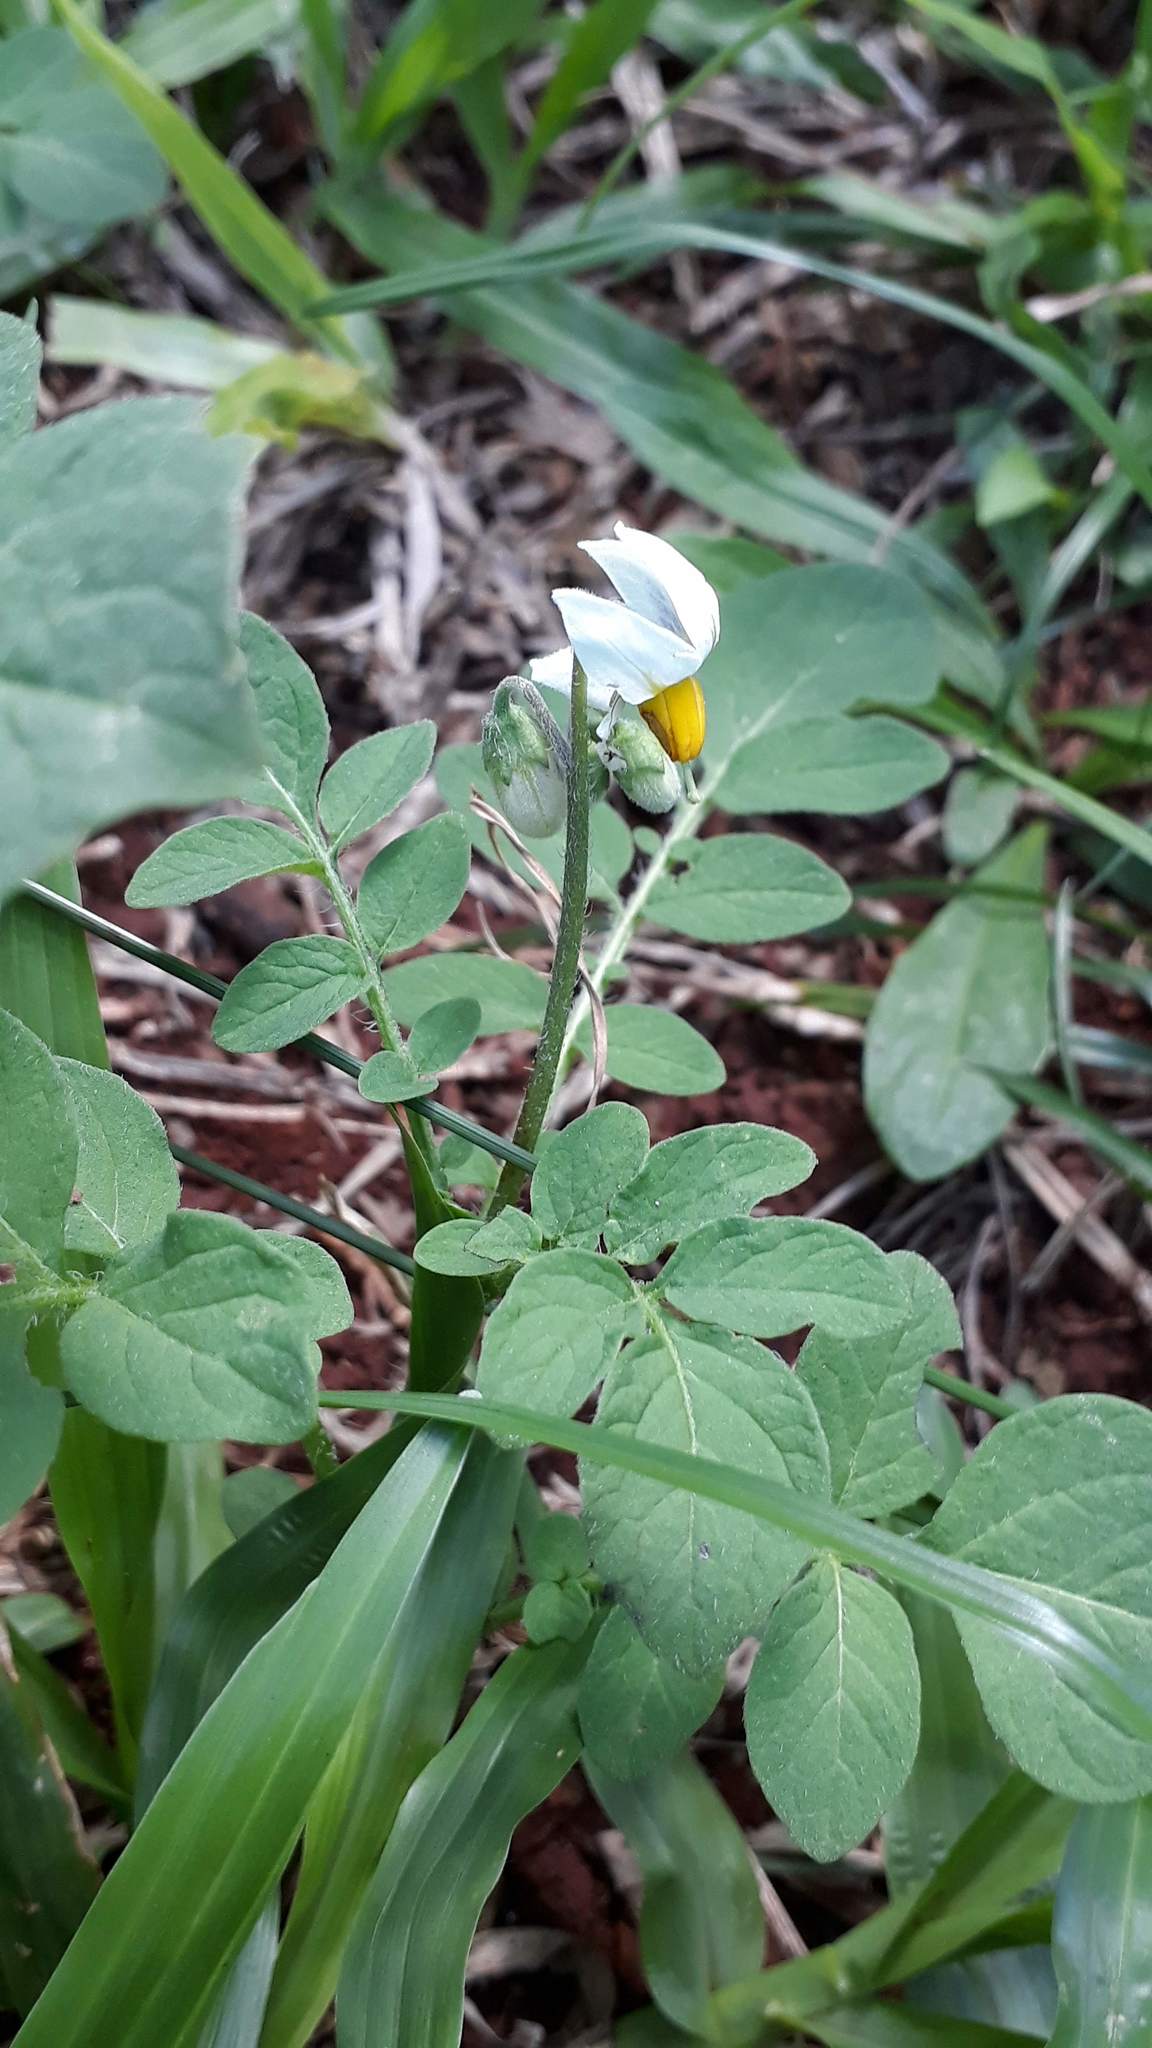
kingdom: Plantae
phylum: Tracheophyta
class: Magnoliopsida
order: Solanales
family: Solanaceae
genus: Solanum
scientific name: Solanum commersonii
